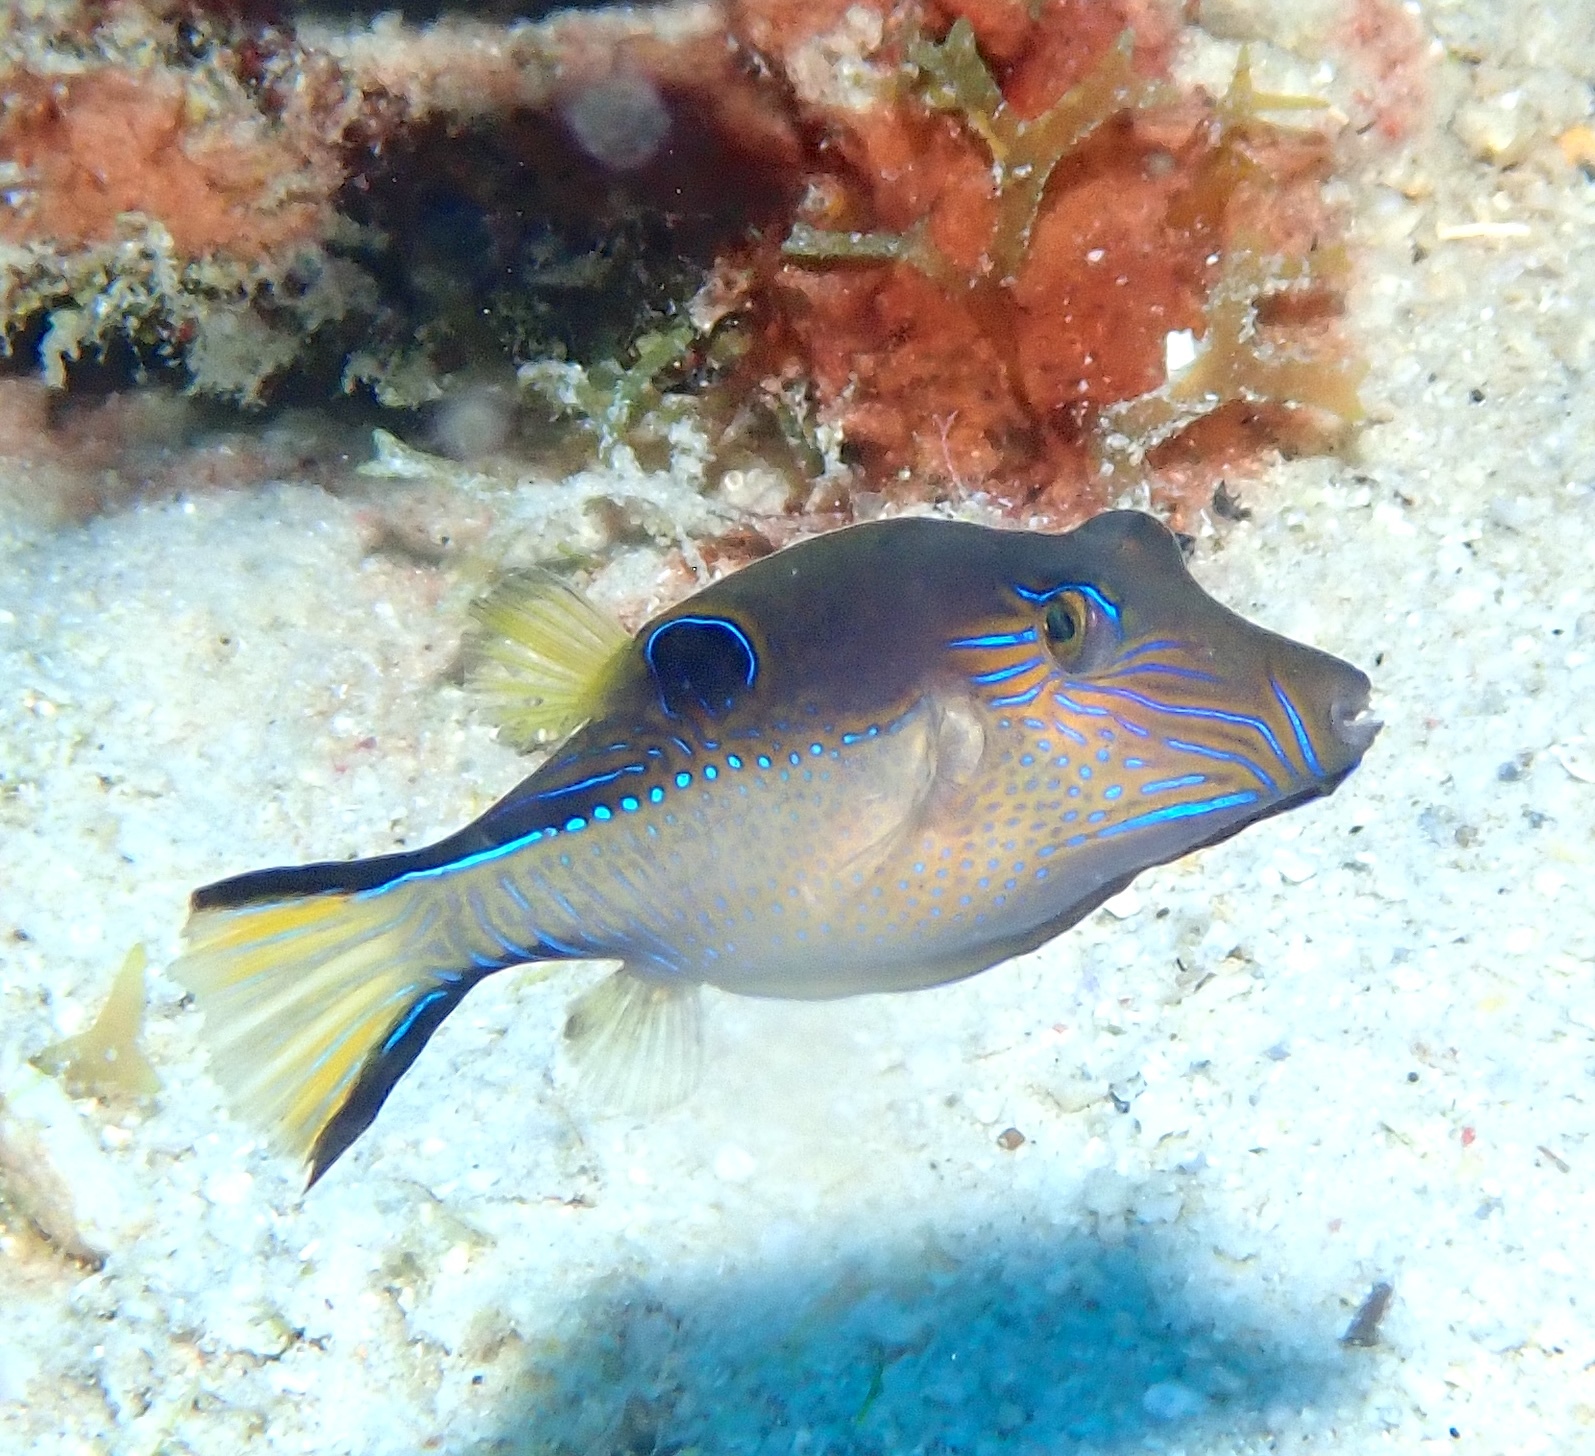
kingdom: Animalia
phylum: Chordata
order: Tetraodontiformes
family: Tetraodontidae
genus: Canthigaster
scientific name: Canthigaster rostrata
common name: Caribbean sharpnose-puffer
